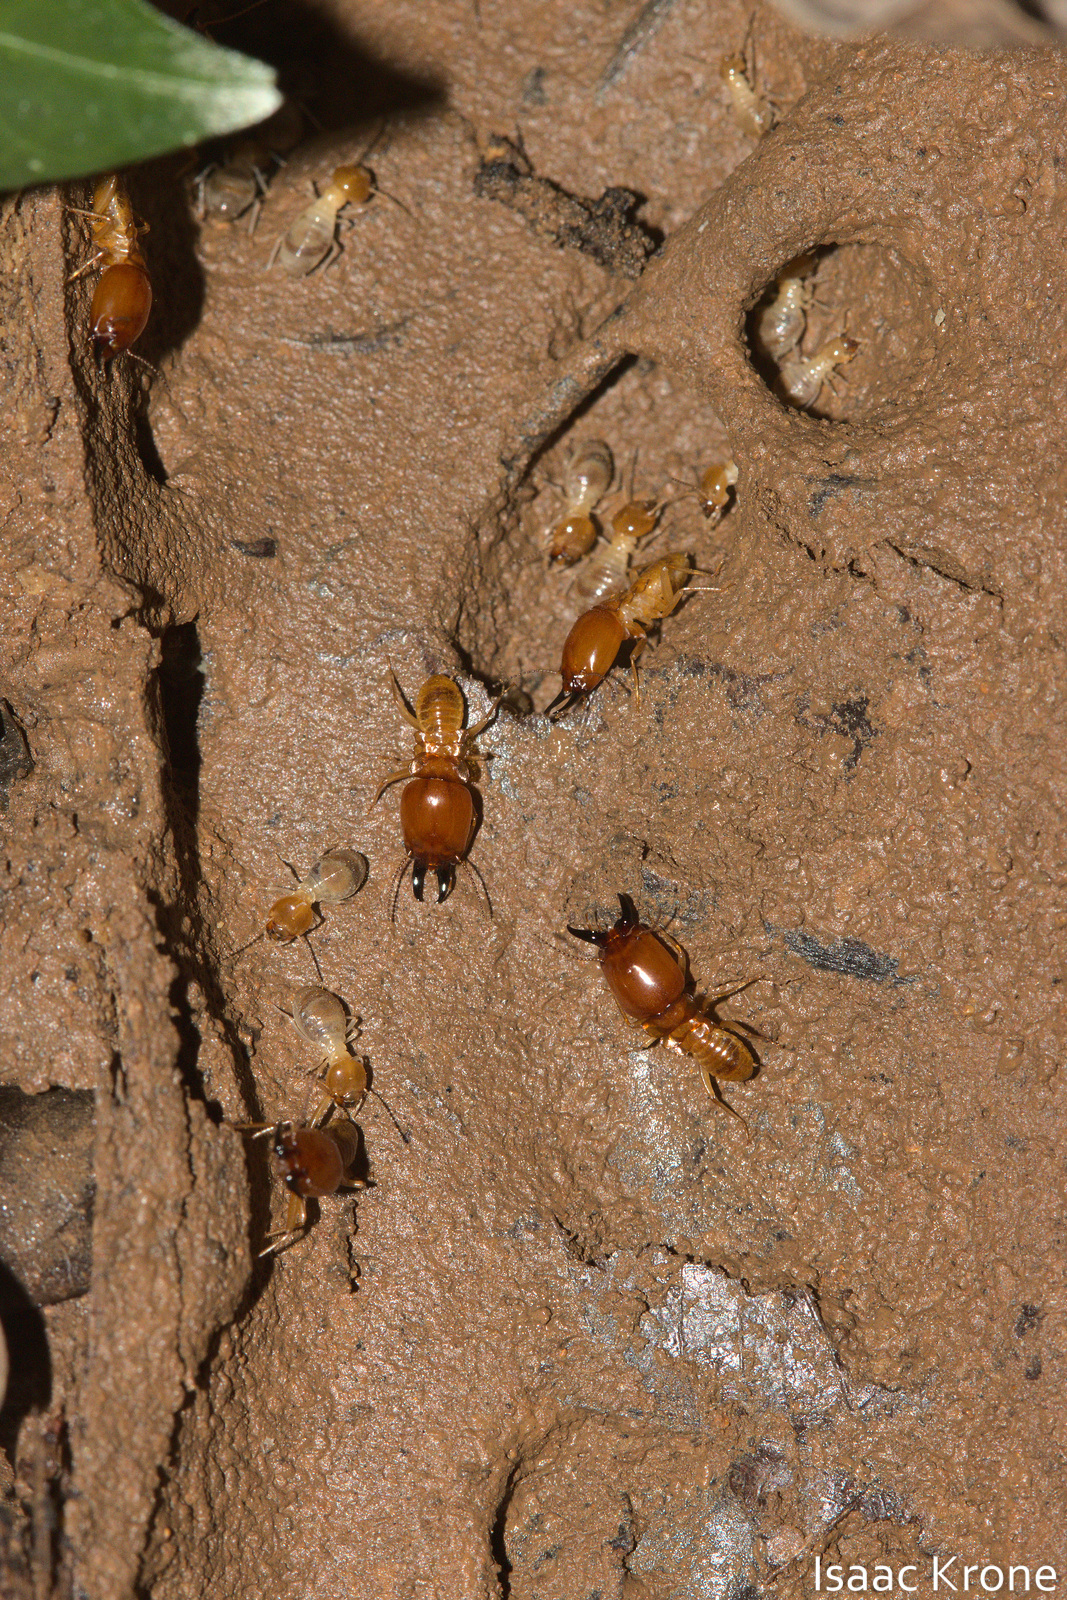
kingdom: Animalia
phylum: Arthropoda
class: Insecta
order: Blattodea
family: Termitidae
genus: Macrotermes
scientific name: Macrotermes gilvus
